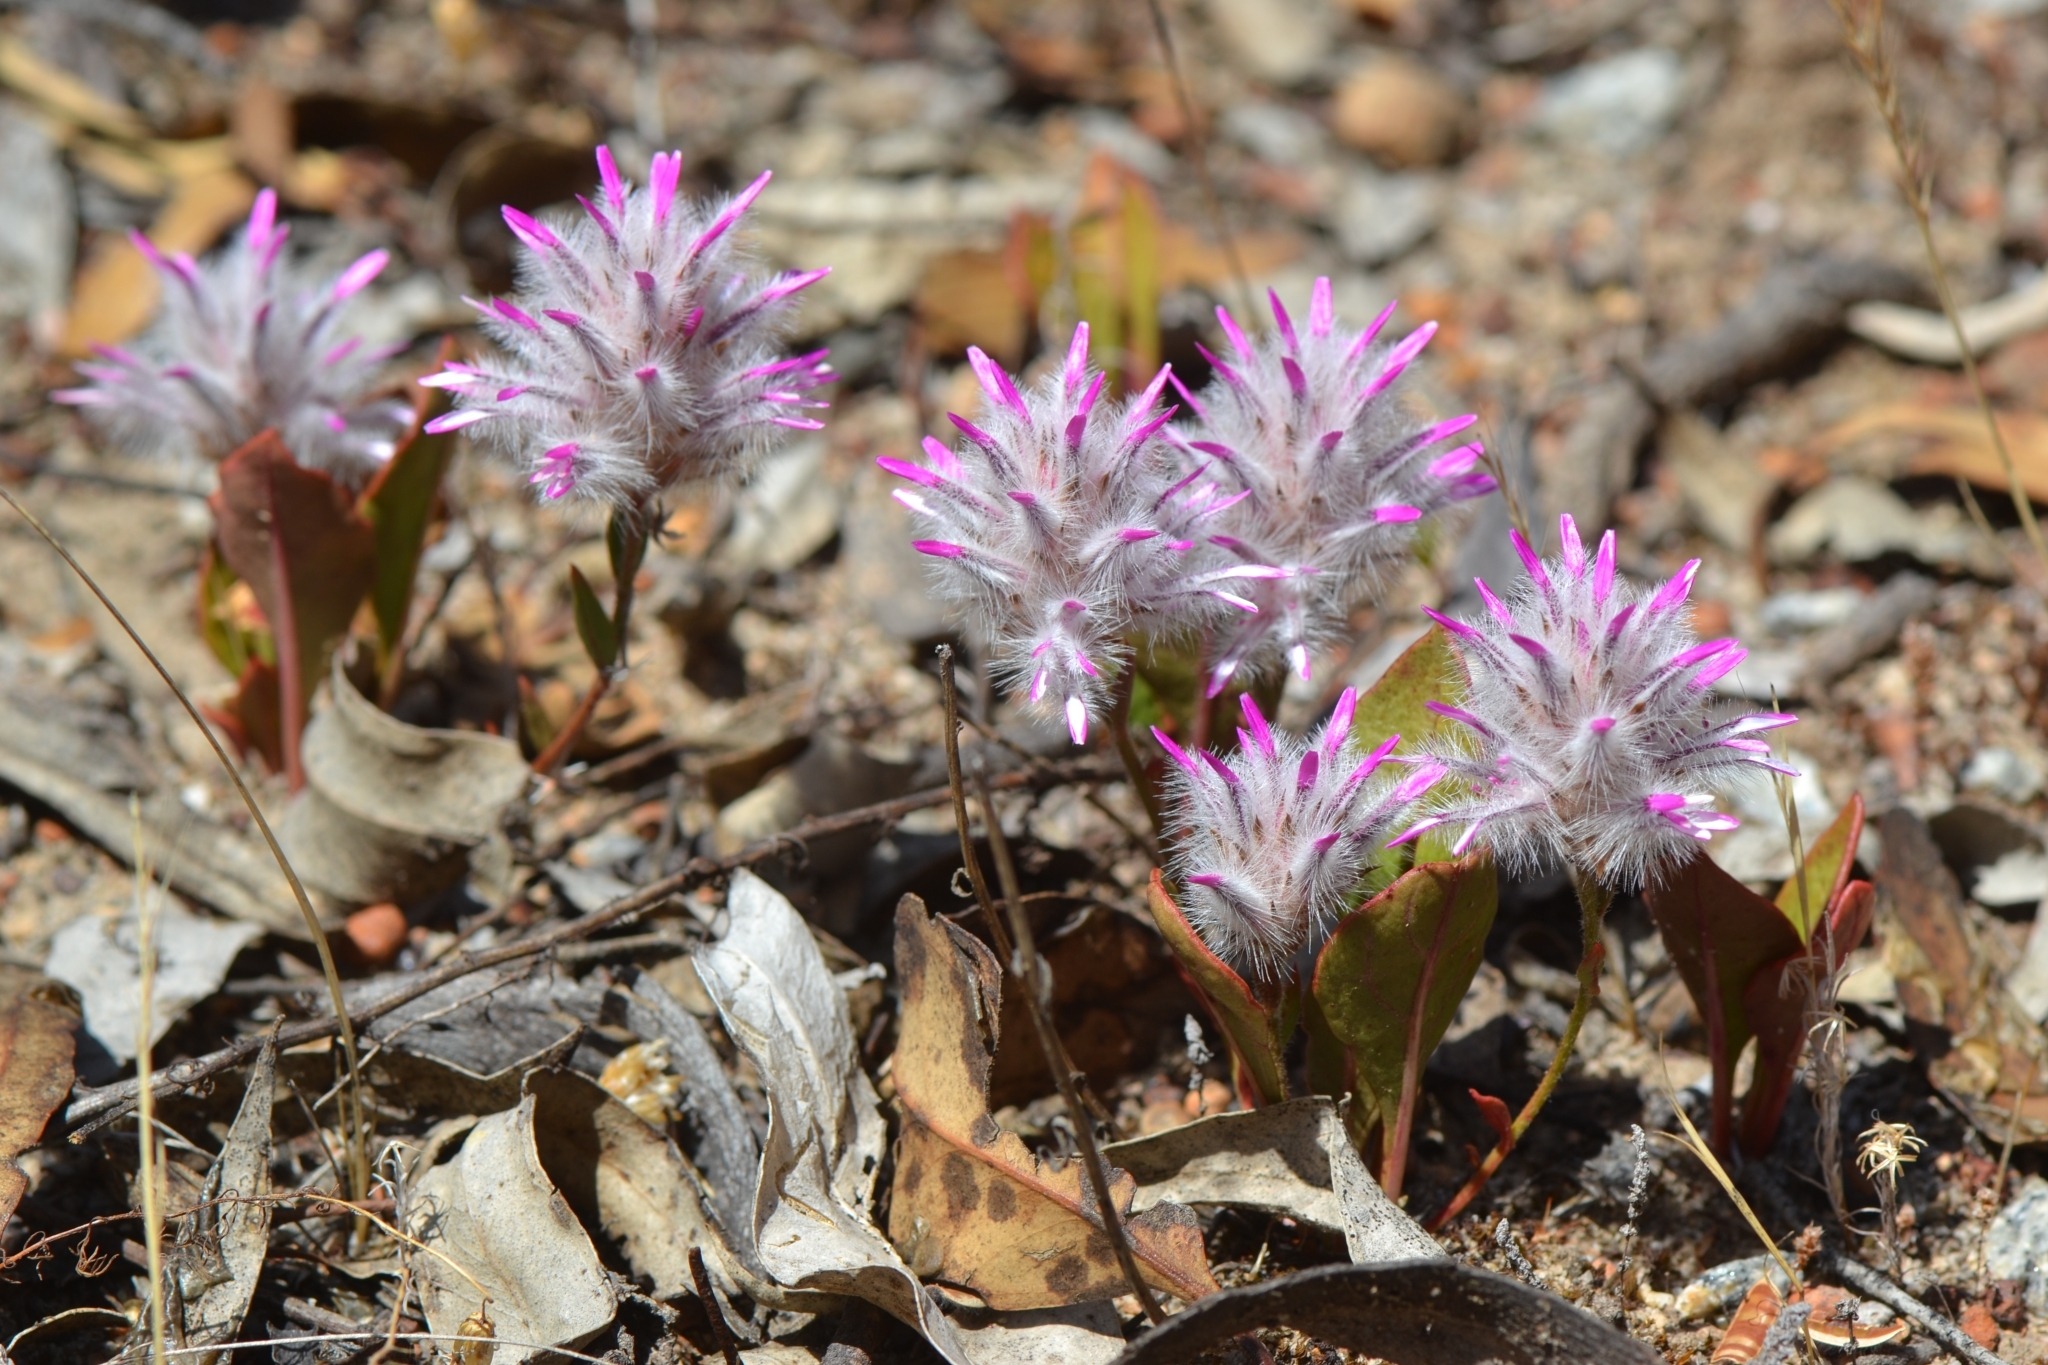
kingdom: Plantae
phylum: Tracheophyta
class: Magnoliopsida
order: Caryophyllales
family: Amaranthaceae
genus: Ptilotus
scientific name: Ptilotus manglesii
